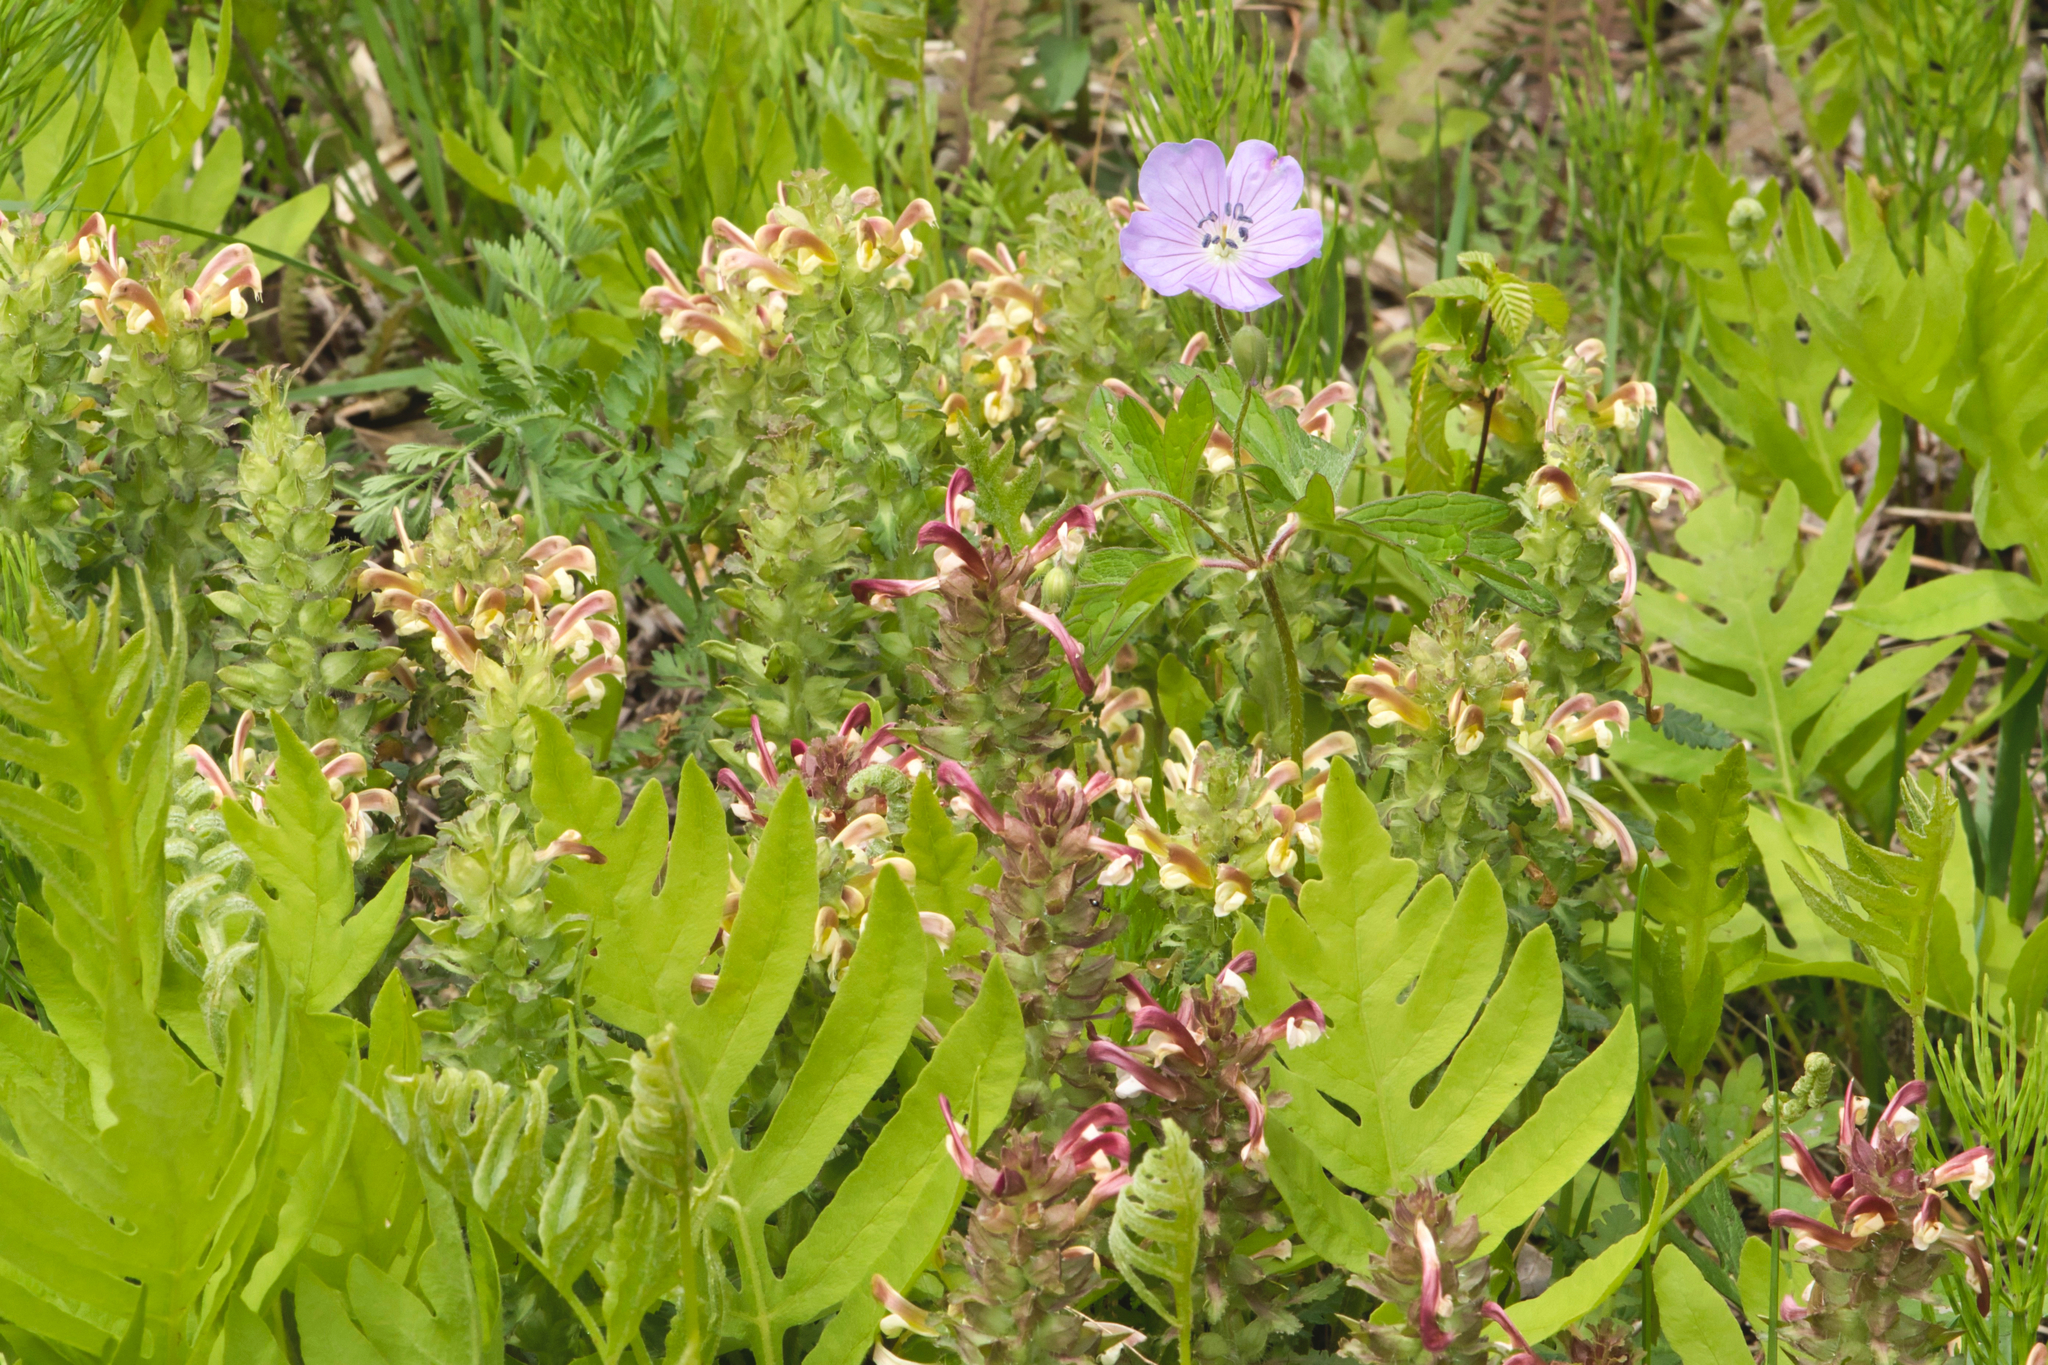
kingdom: Plantae
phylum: Tracheophyta
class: Magnoliopsida
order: Lamiales
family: Orobanchaceae
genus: Pedicularis
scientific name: Pedicularis canadensis
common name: Early lousewort
